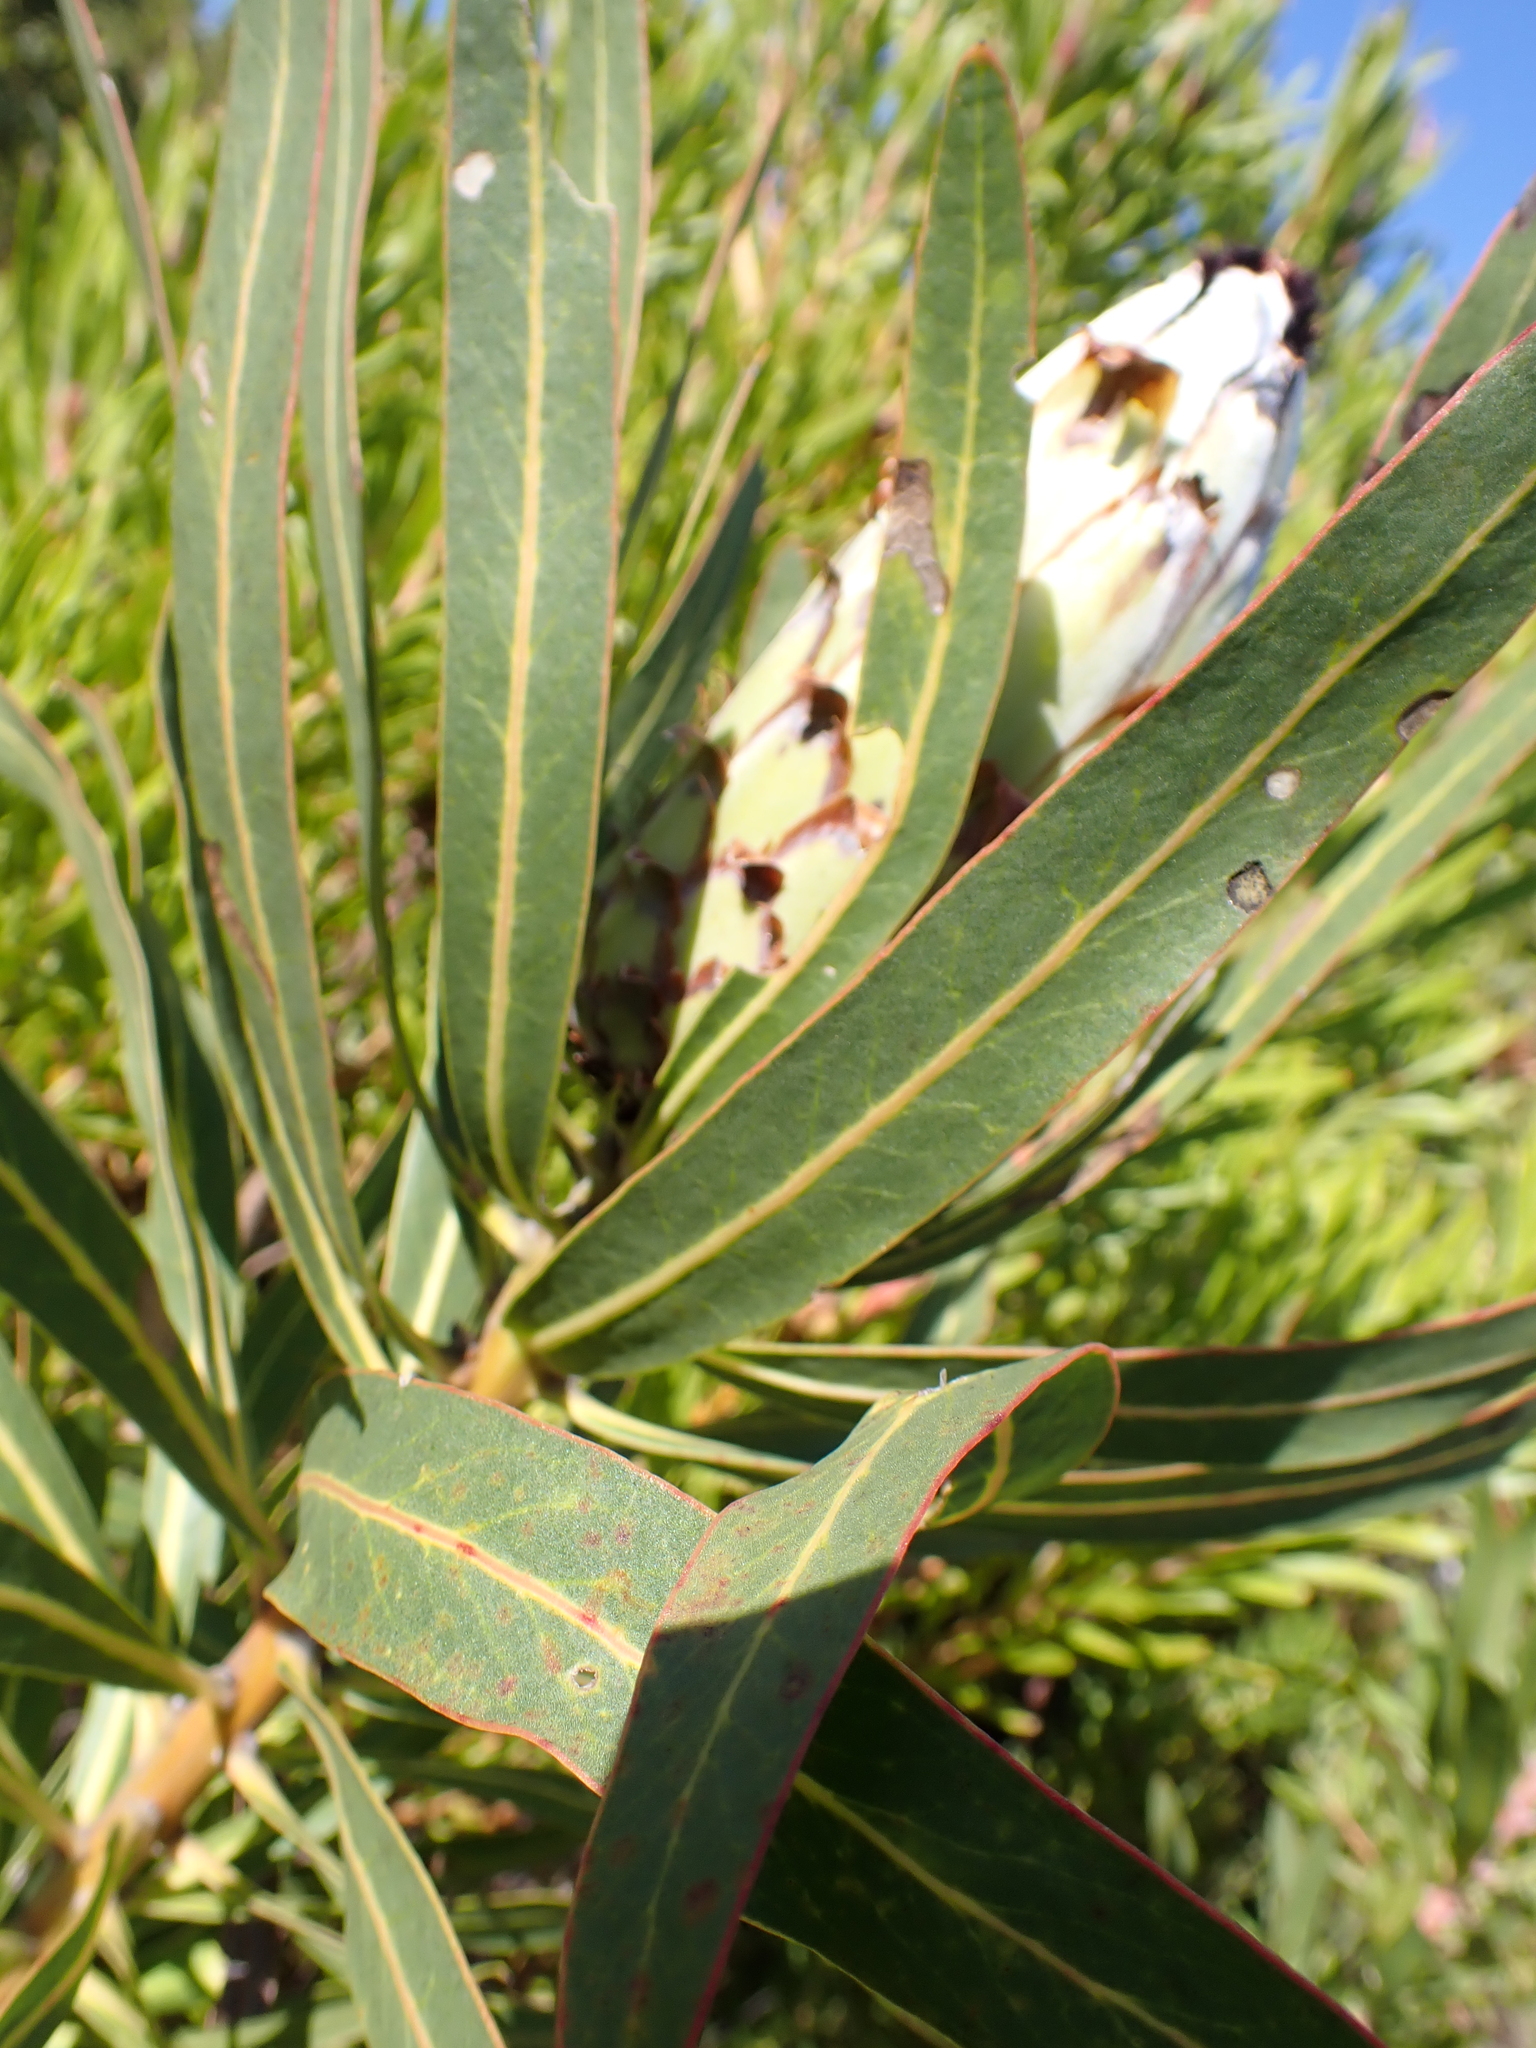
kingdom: Plantae
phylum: Tracheophyta
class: Magnoliopsida
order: Proteales
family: Proteaceae
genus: Protea
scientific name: Protea neriifolia
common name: Blue sugarbush
